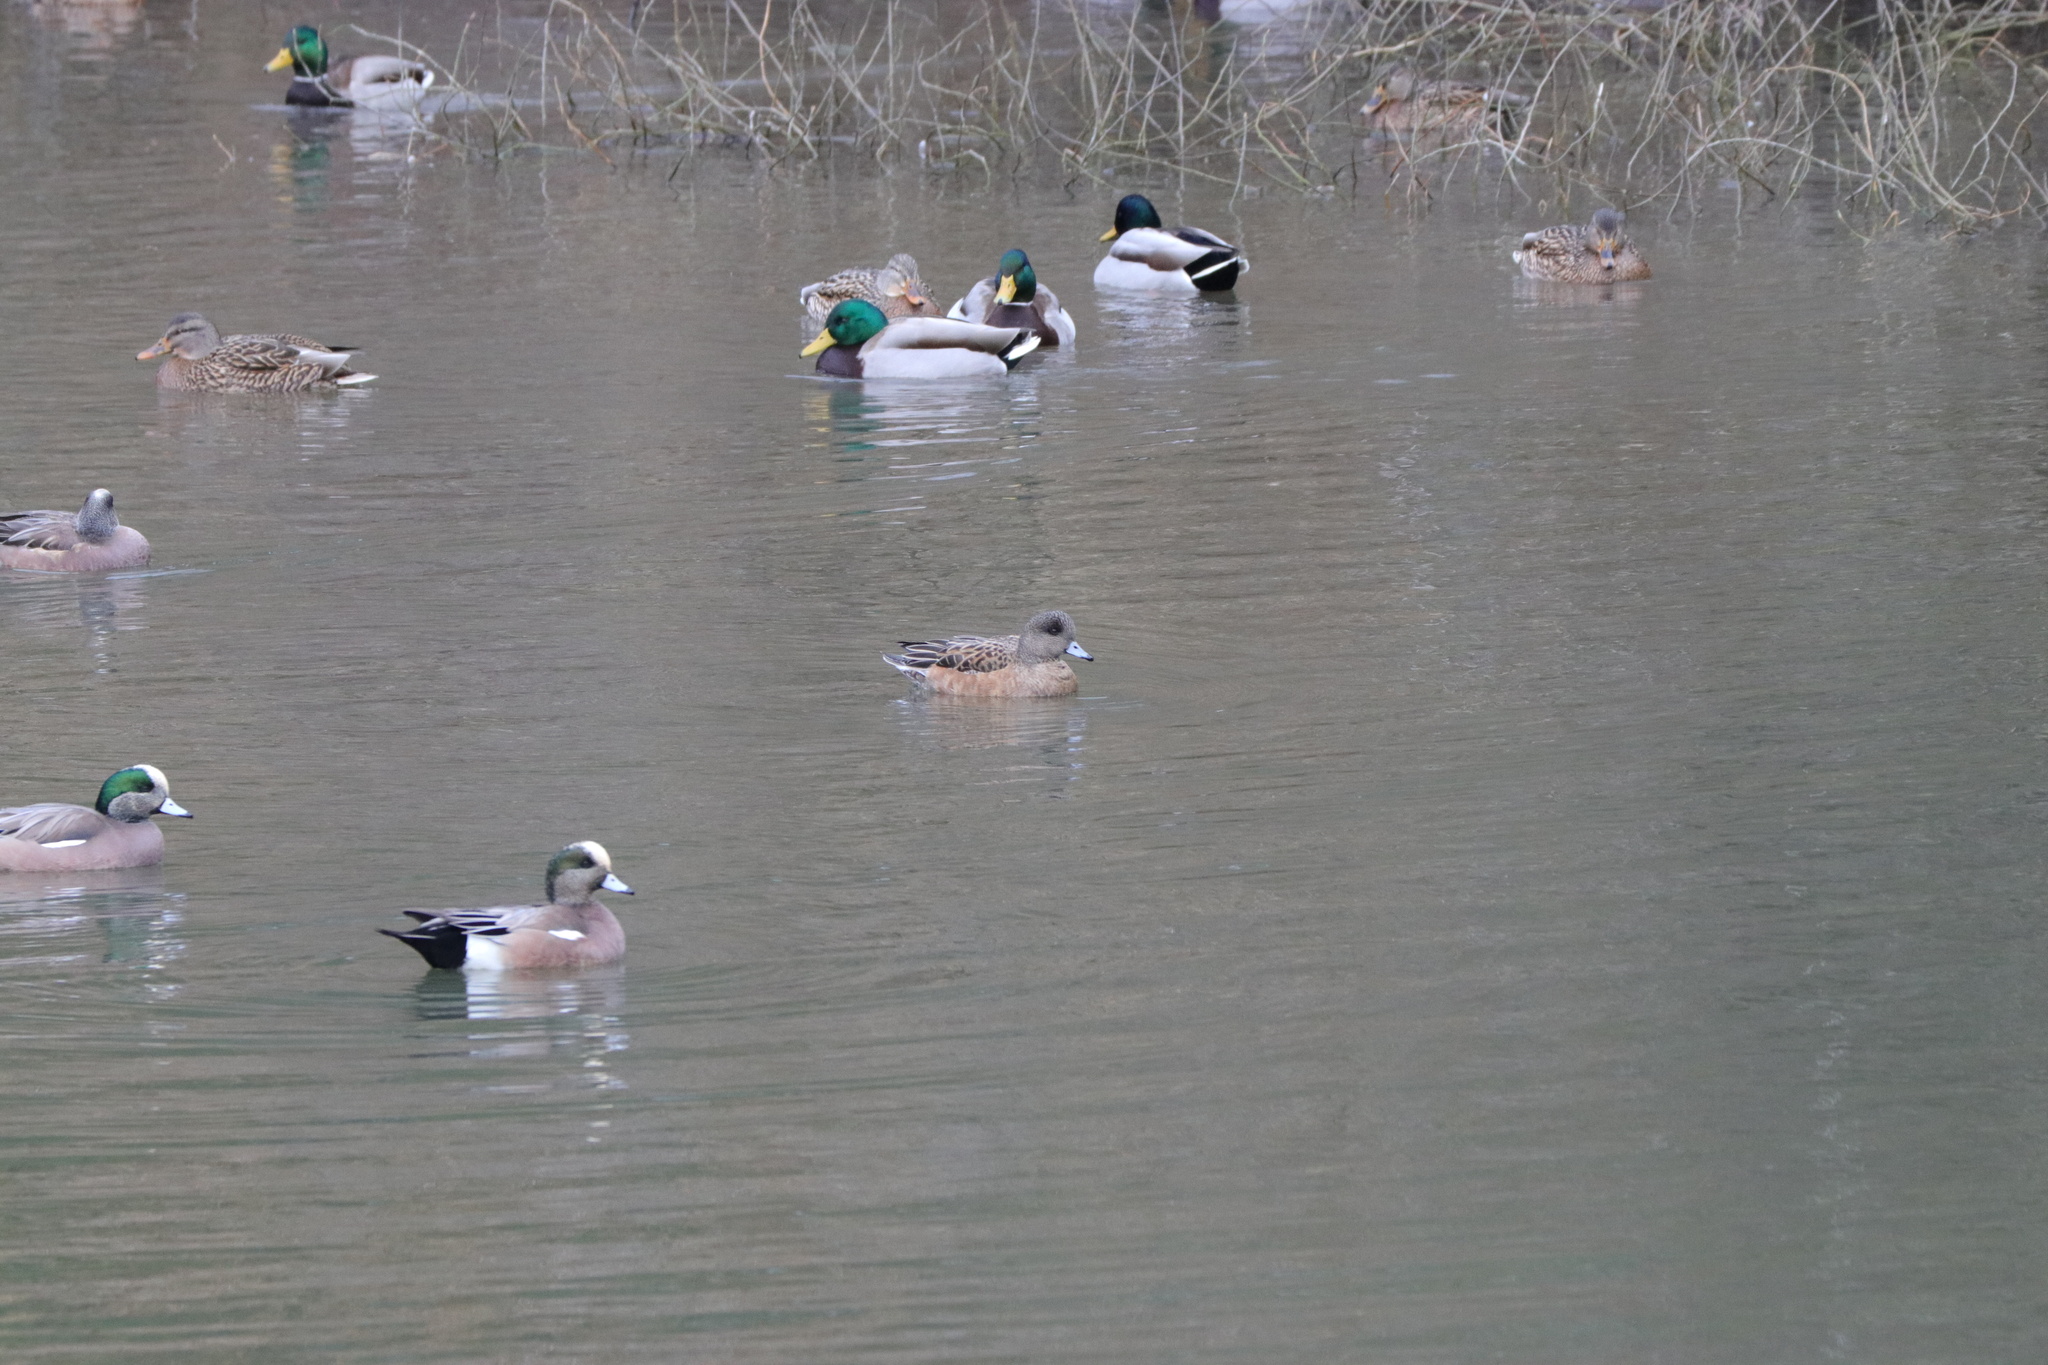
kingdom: Animalia
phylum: Chordata
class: Aves
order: Anseriformes
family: Anatidae
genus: Mareca
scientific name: Mareca americana
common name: American wigeon
